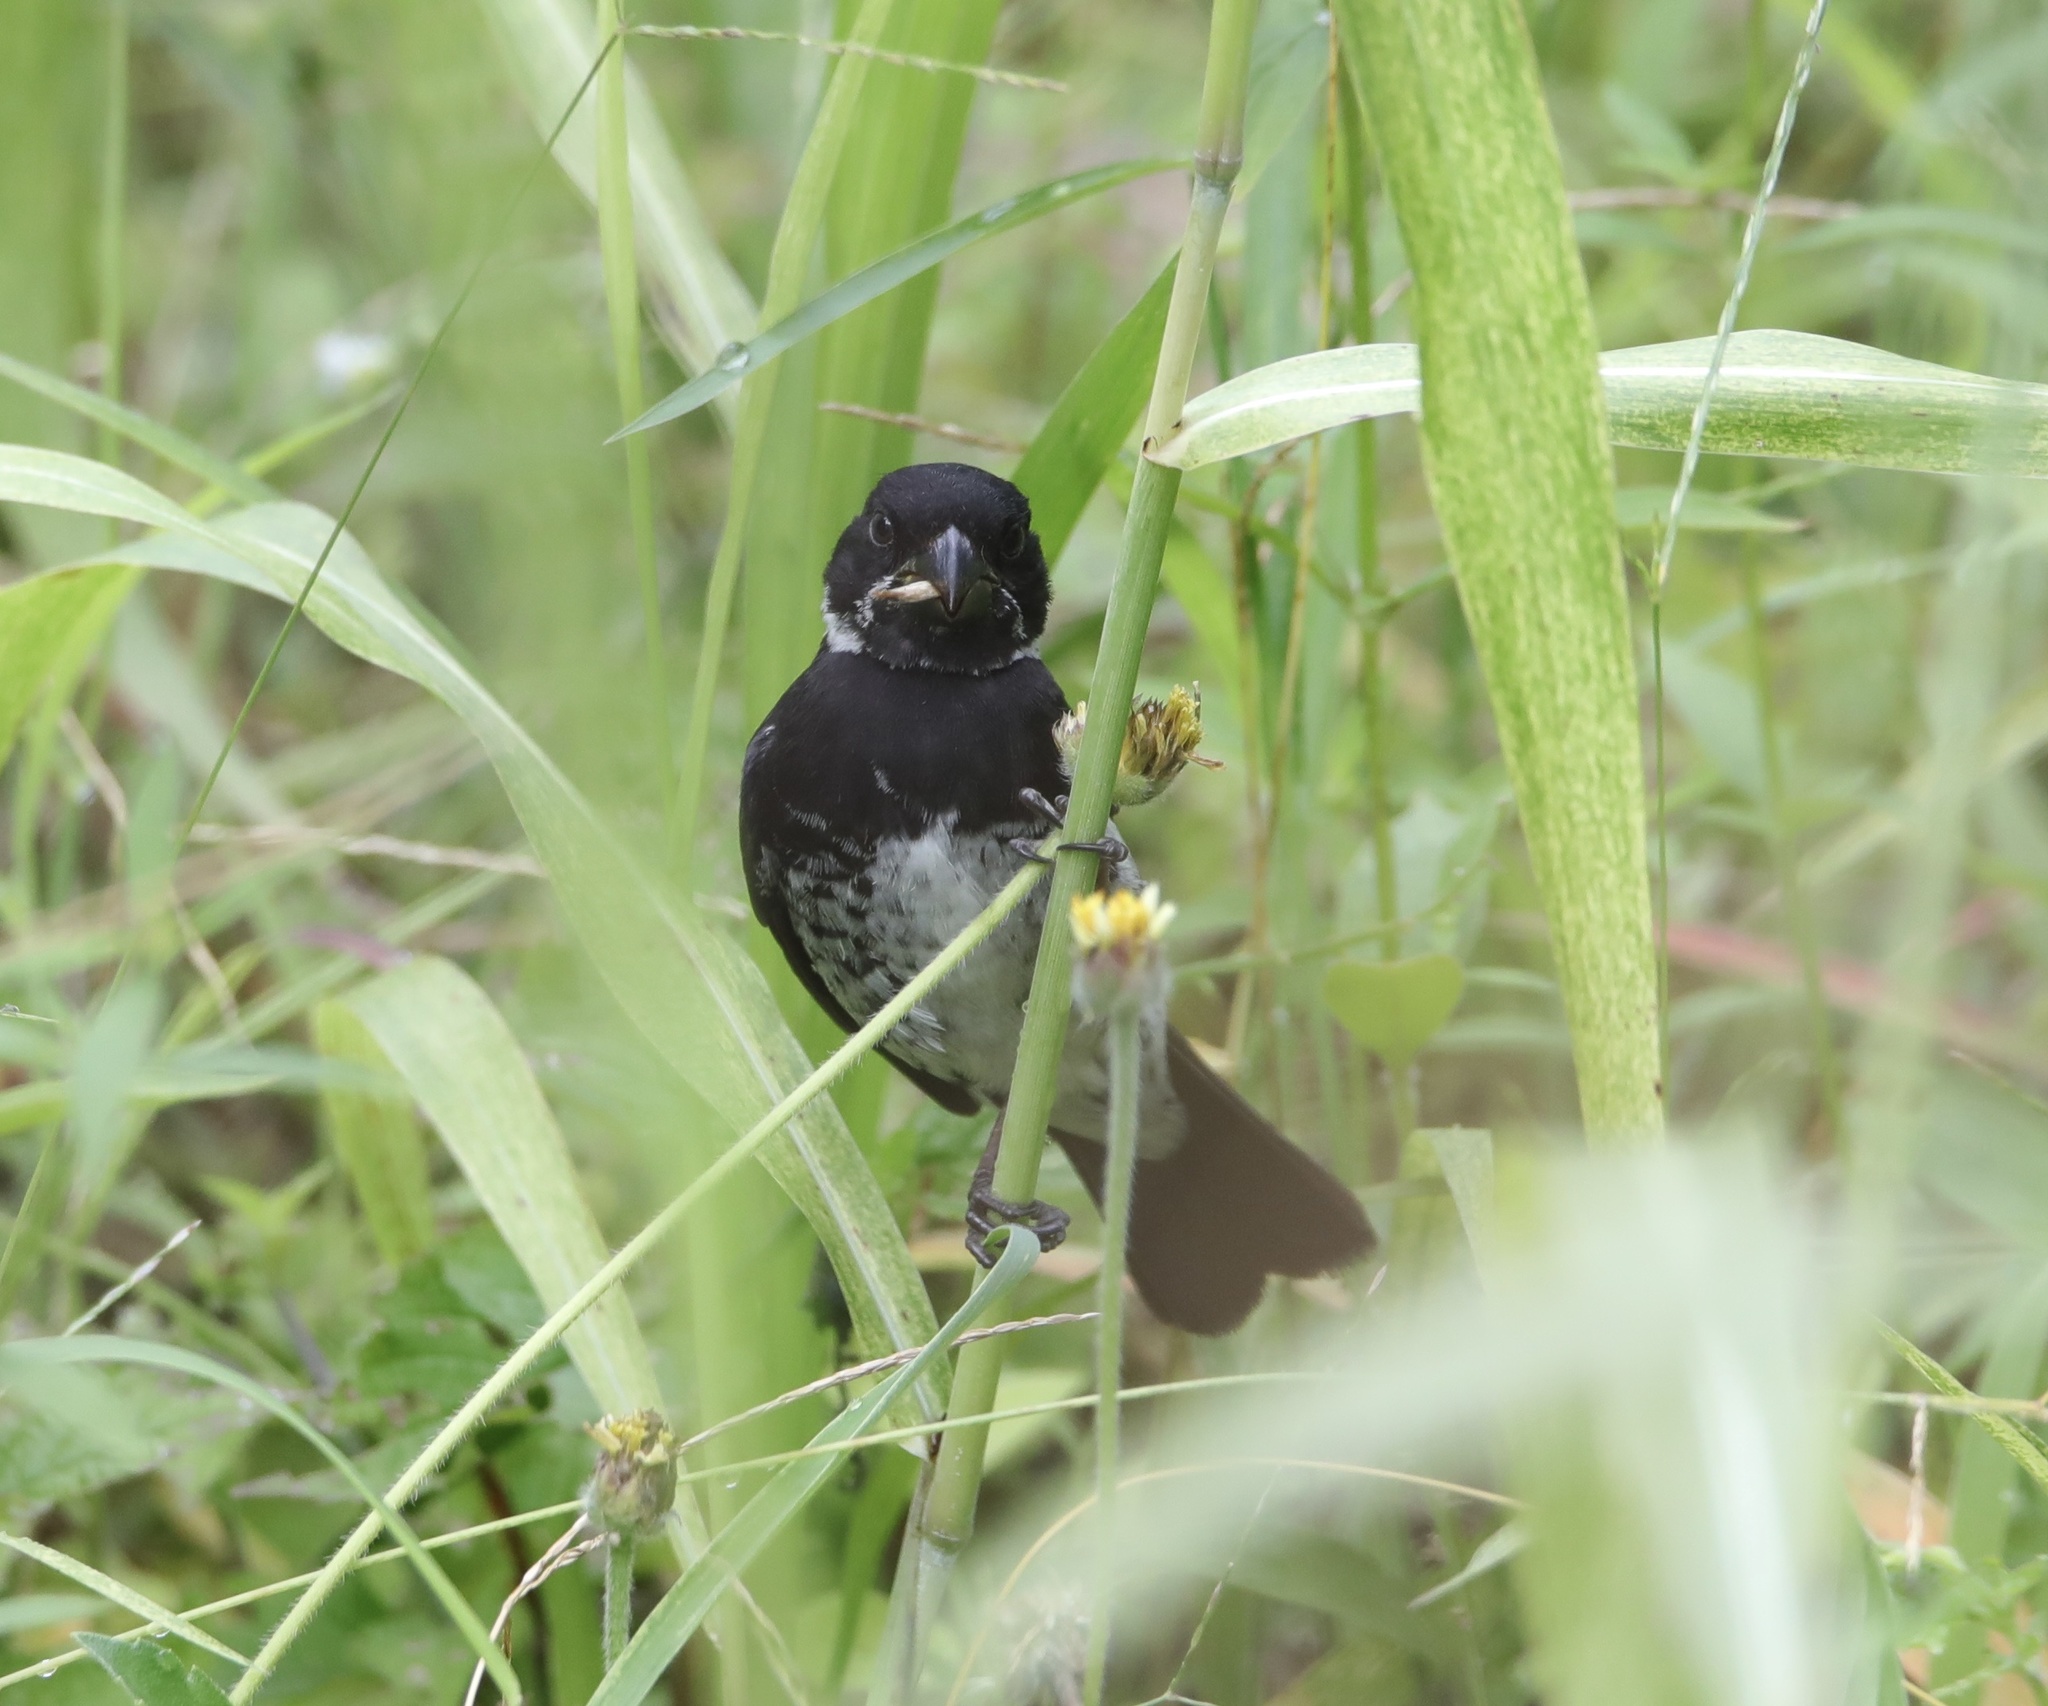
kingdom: Animalia
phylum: Chordata
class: Aves
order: Passeriformes
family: Thraupidae
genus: Sporophila
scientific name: Sporophila corvina
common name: Variable seedeater
